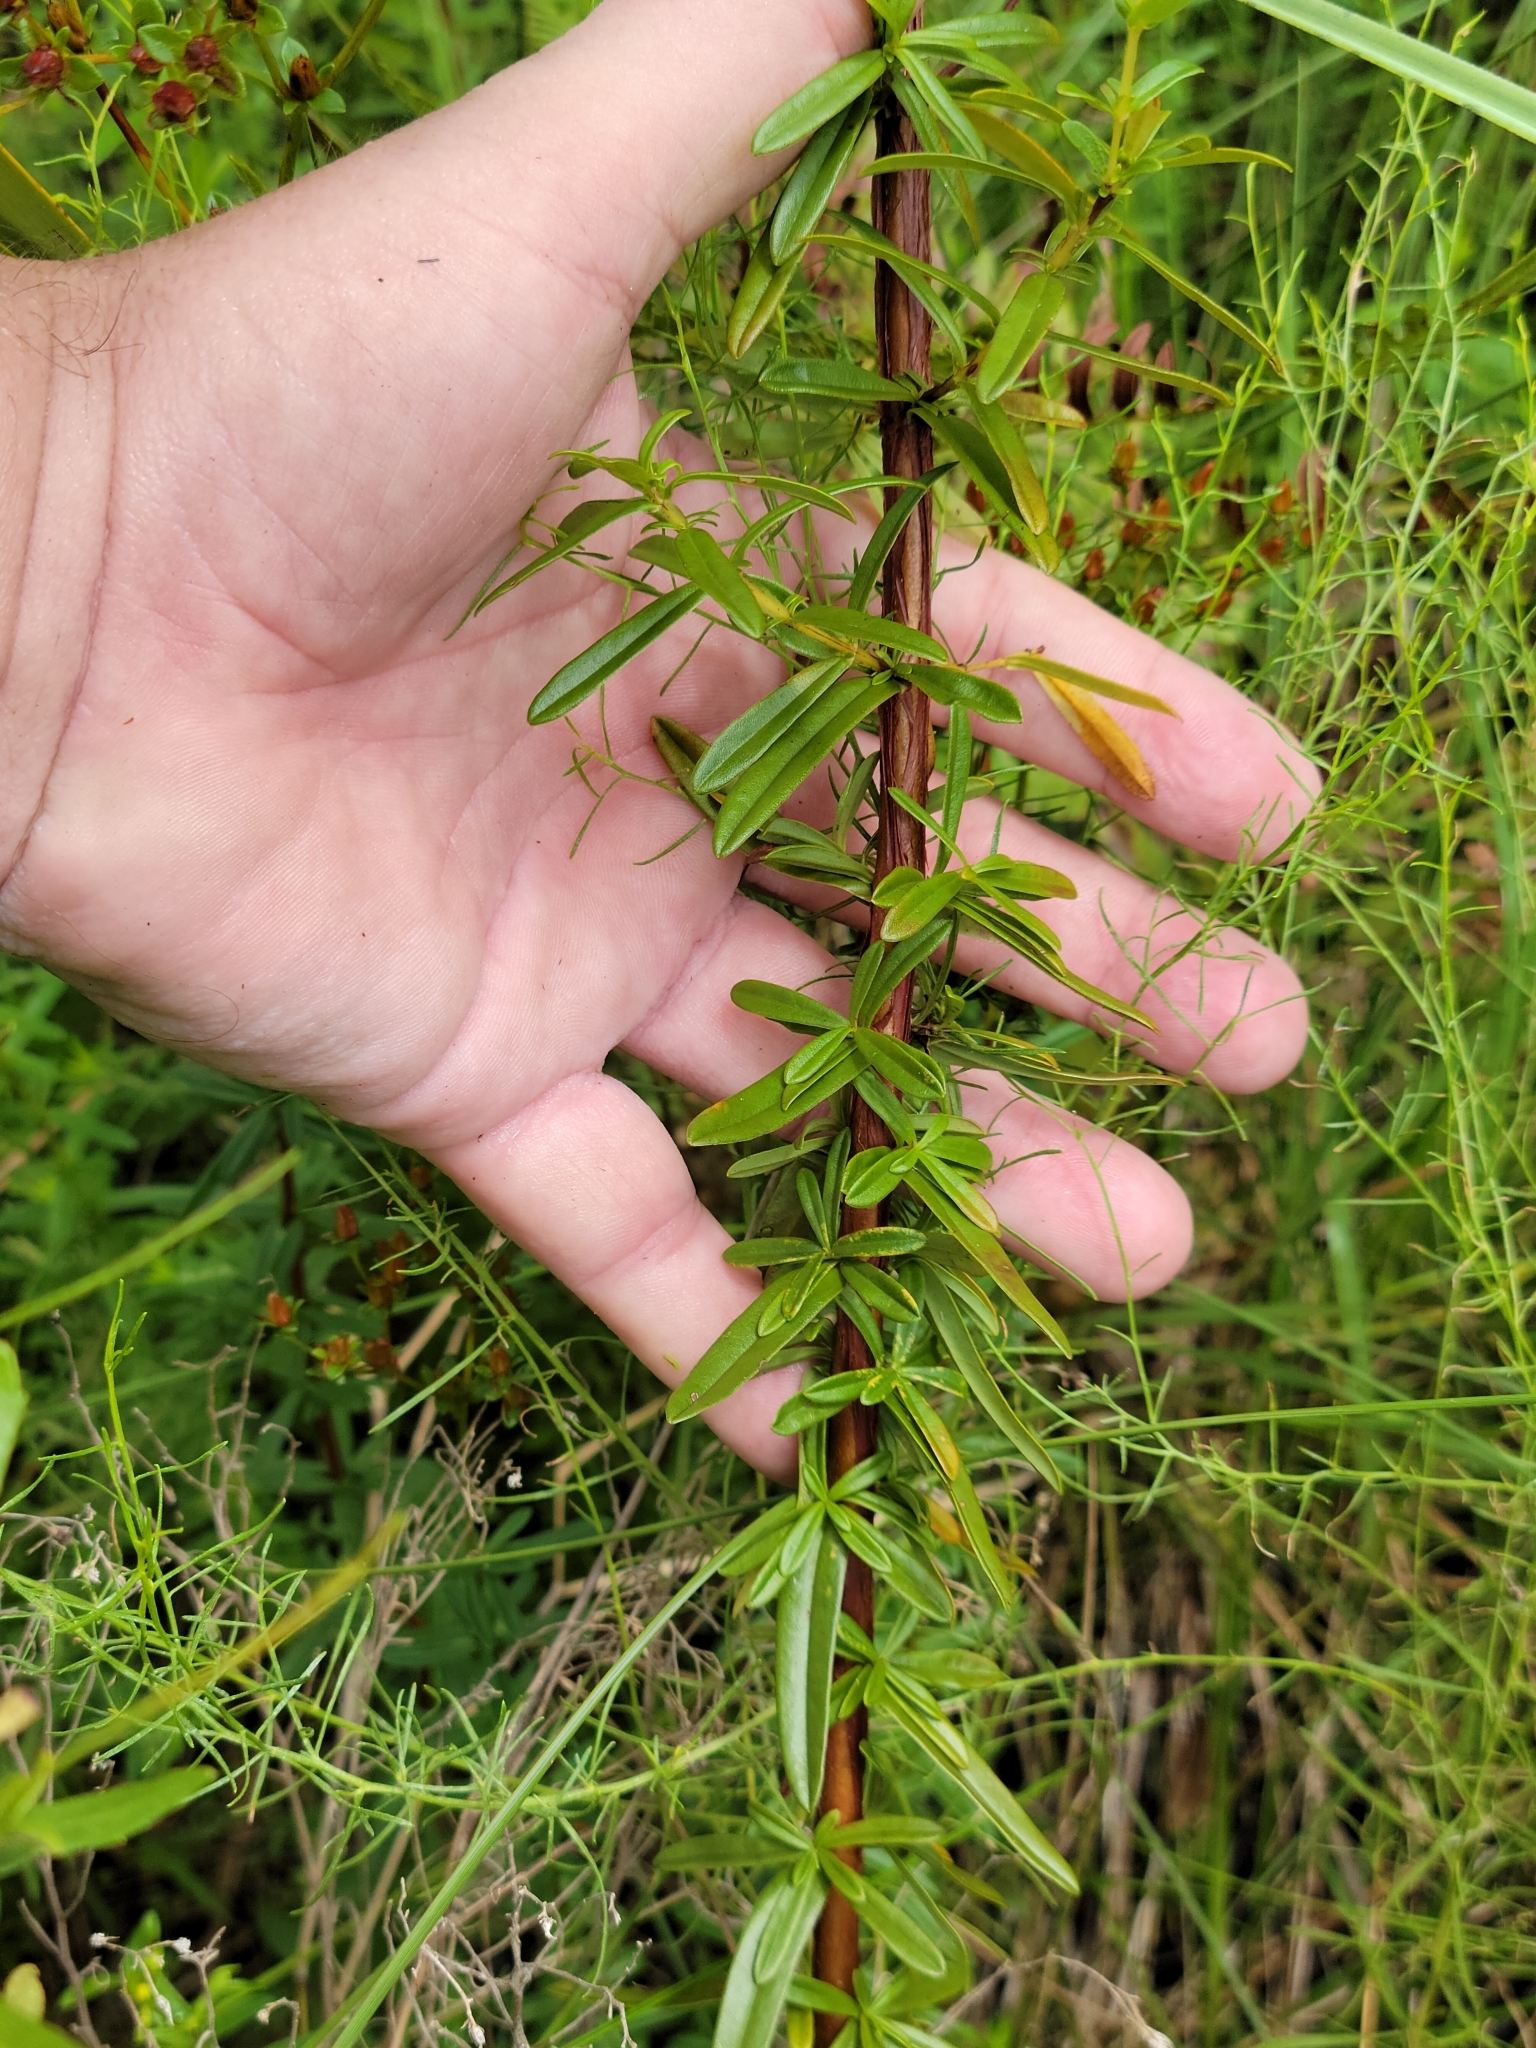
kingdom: Plantae
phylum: Tracheophyta
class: Magnoliopsida
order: Malpighiales
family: Hypericaceae
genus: Hypericum
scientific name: Hypericum cistifolium
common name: Round-pod st. john's-wort
